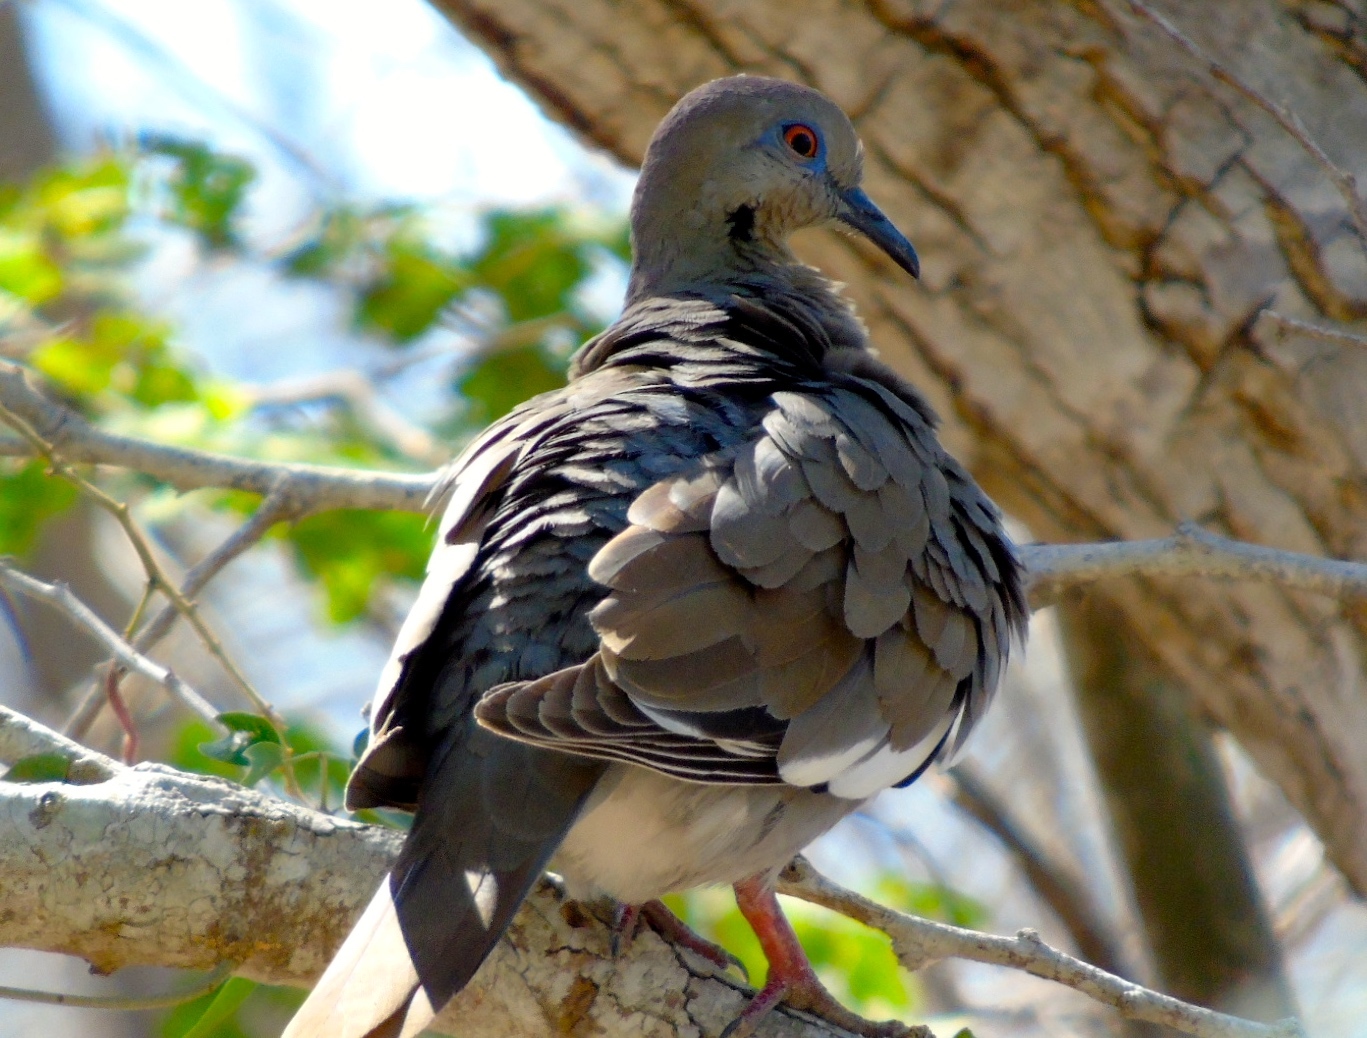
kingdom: Animalia
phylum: Chordata
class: Aves
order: Columbiformes
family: Columbidae
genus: Zenaida
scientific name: Zenaida asiatica
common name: White-winged dove
